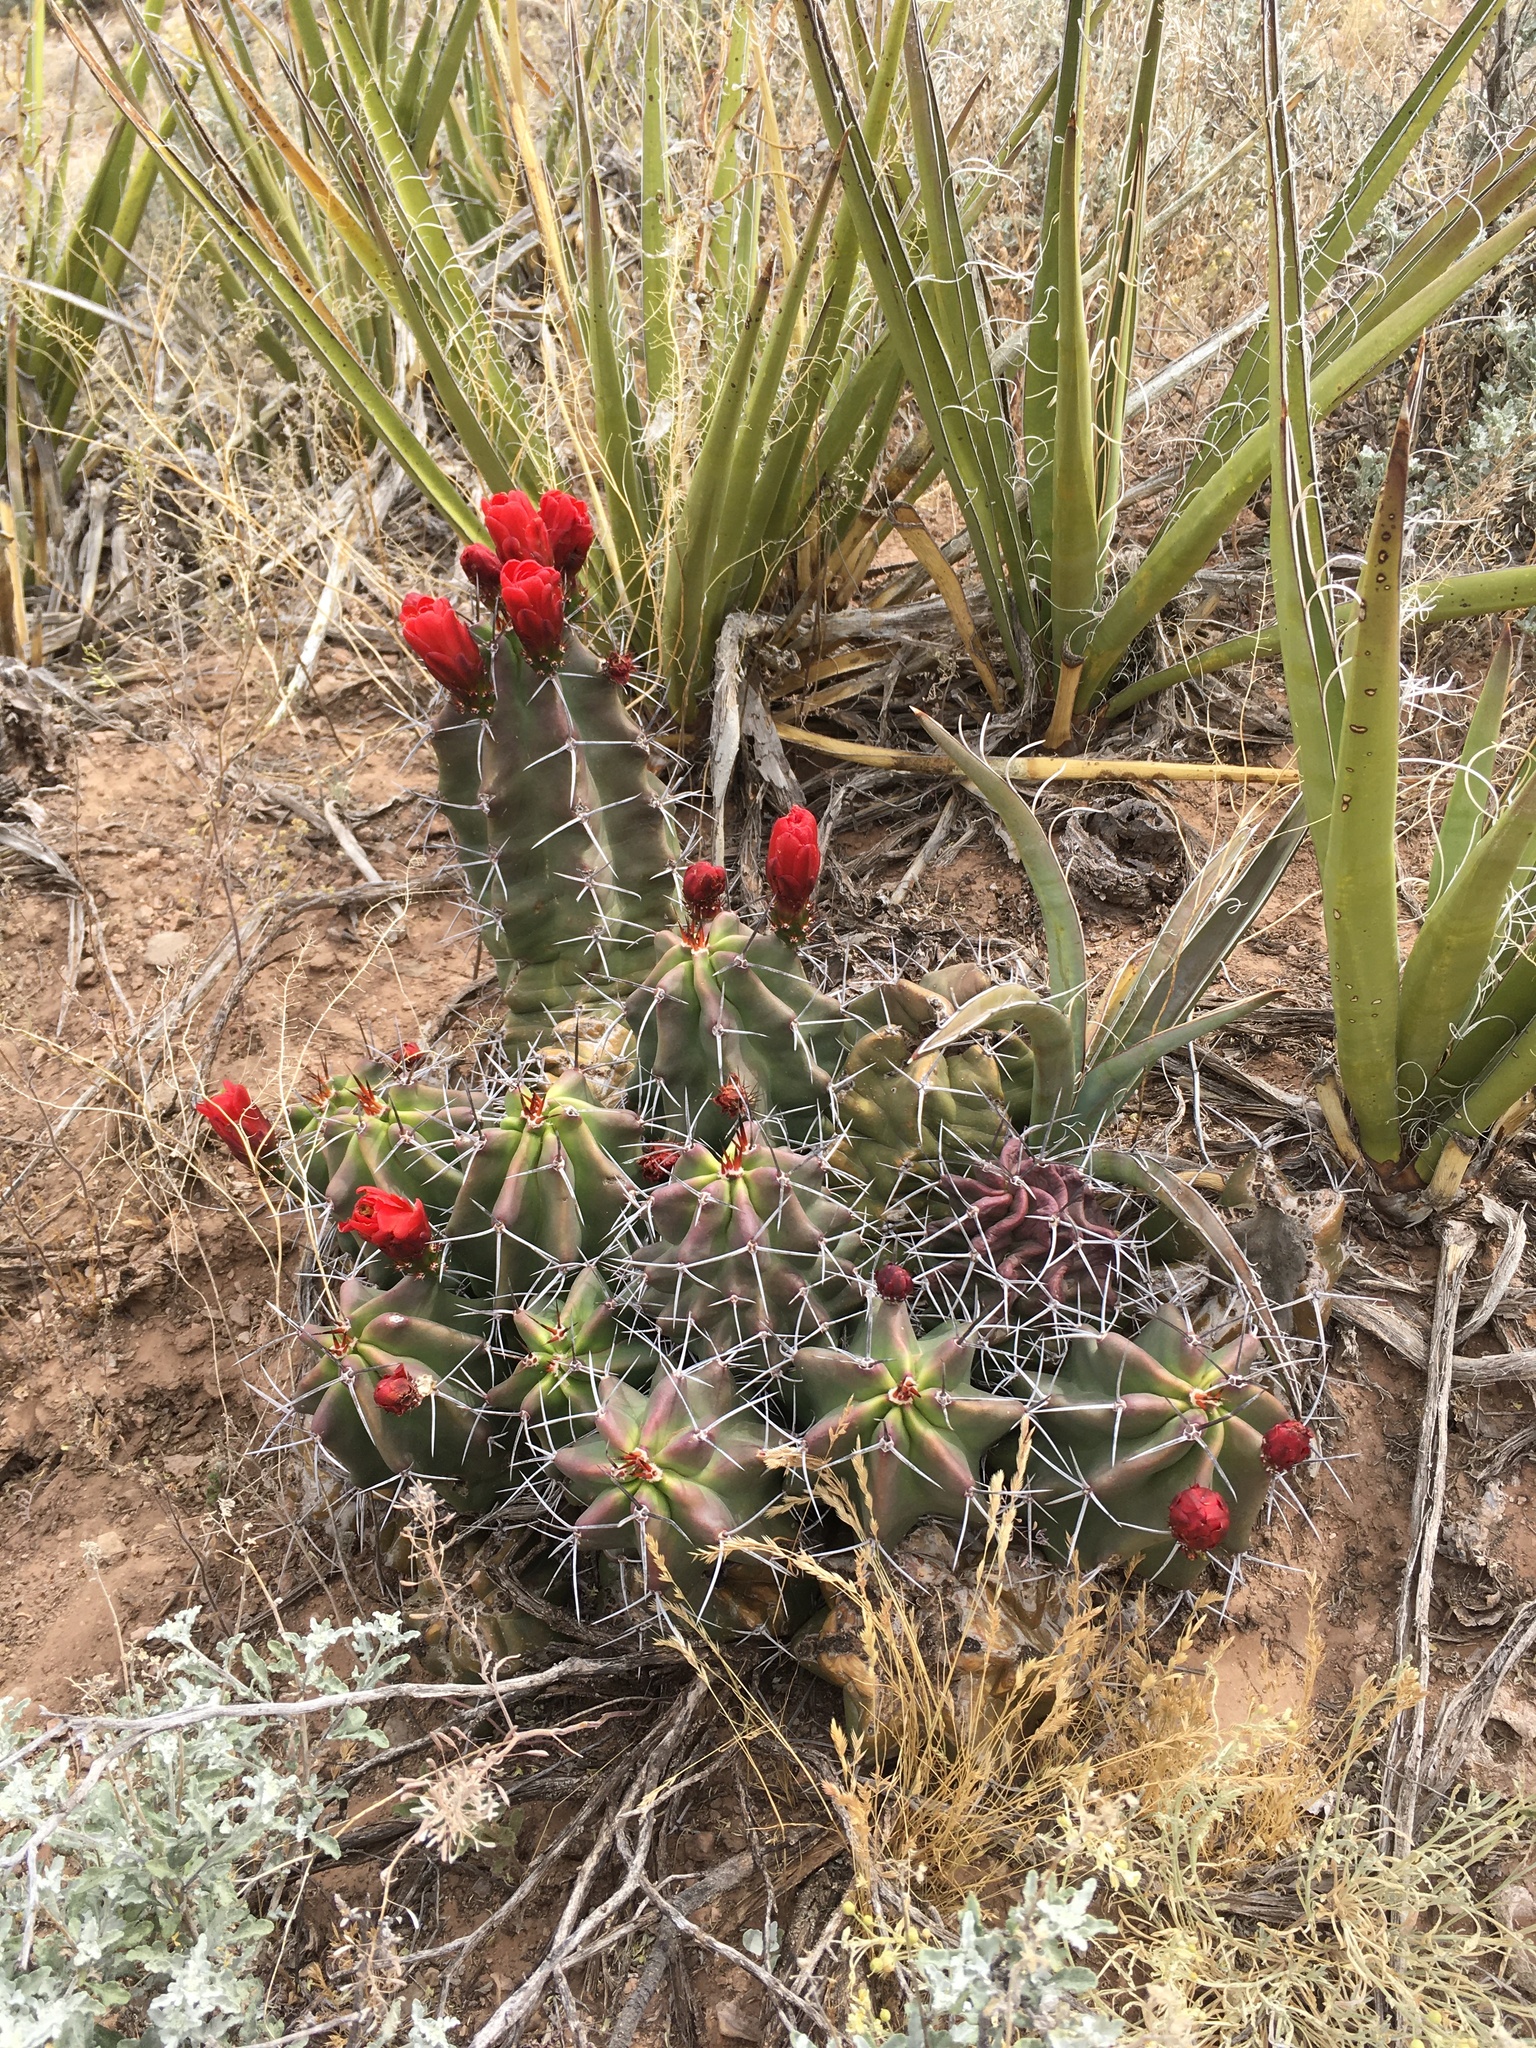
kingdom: Plantae
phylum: Tracheophyta
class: Magnoliopsida
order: Caryophyllales
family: Cactaceae
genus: Echinocereus
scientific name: Echinocereus triglochidiatus
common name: Claretcup hedgehog
